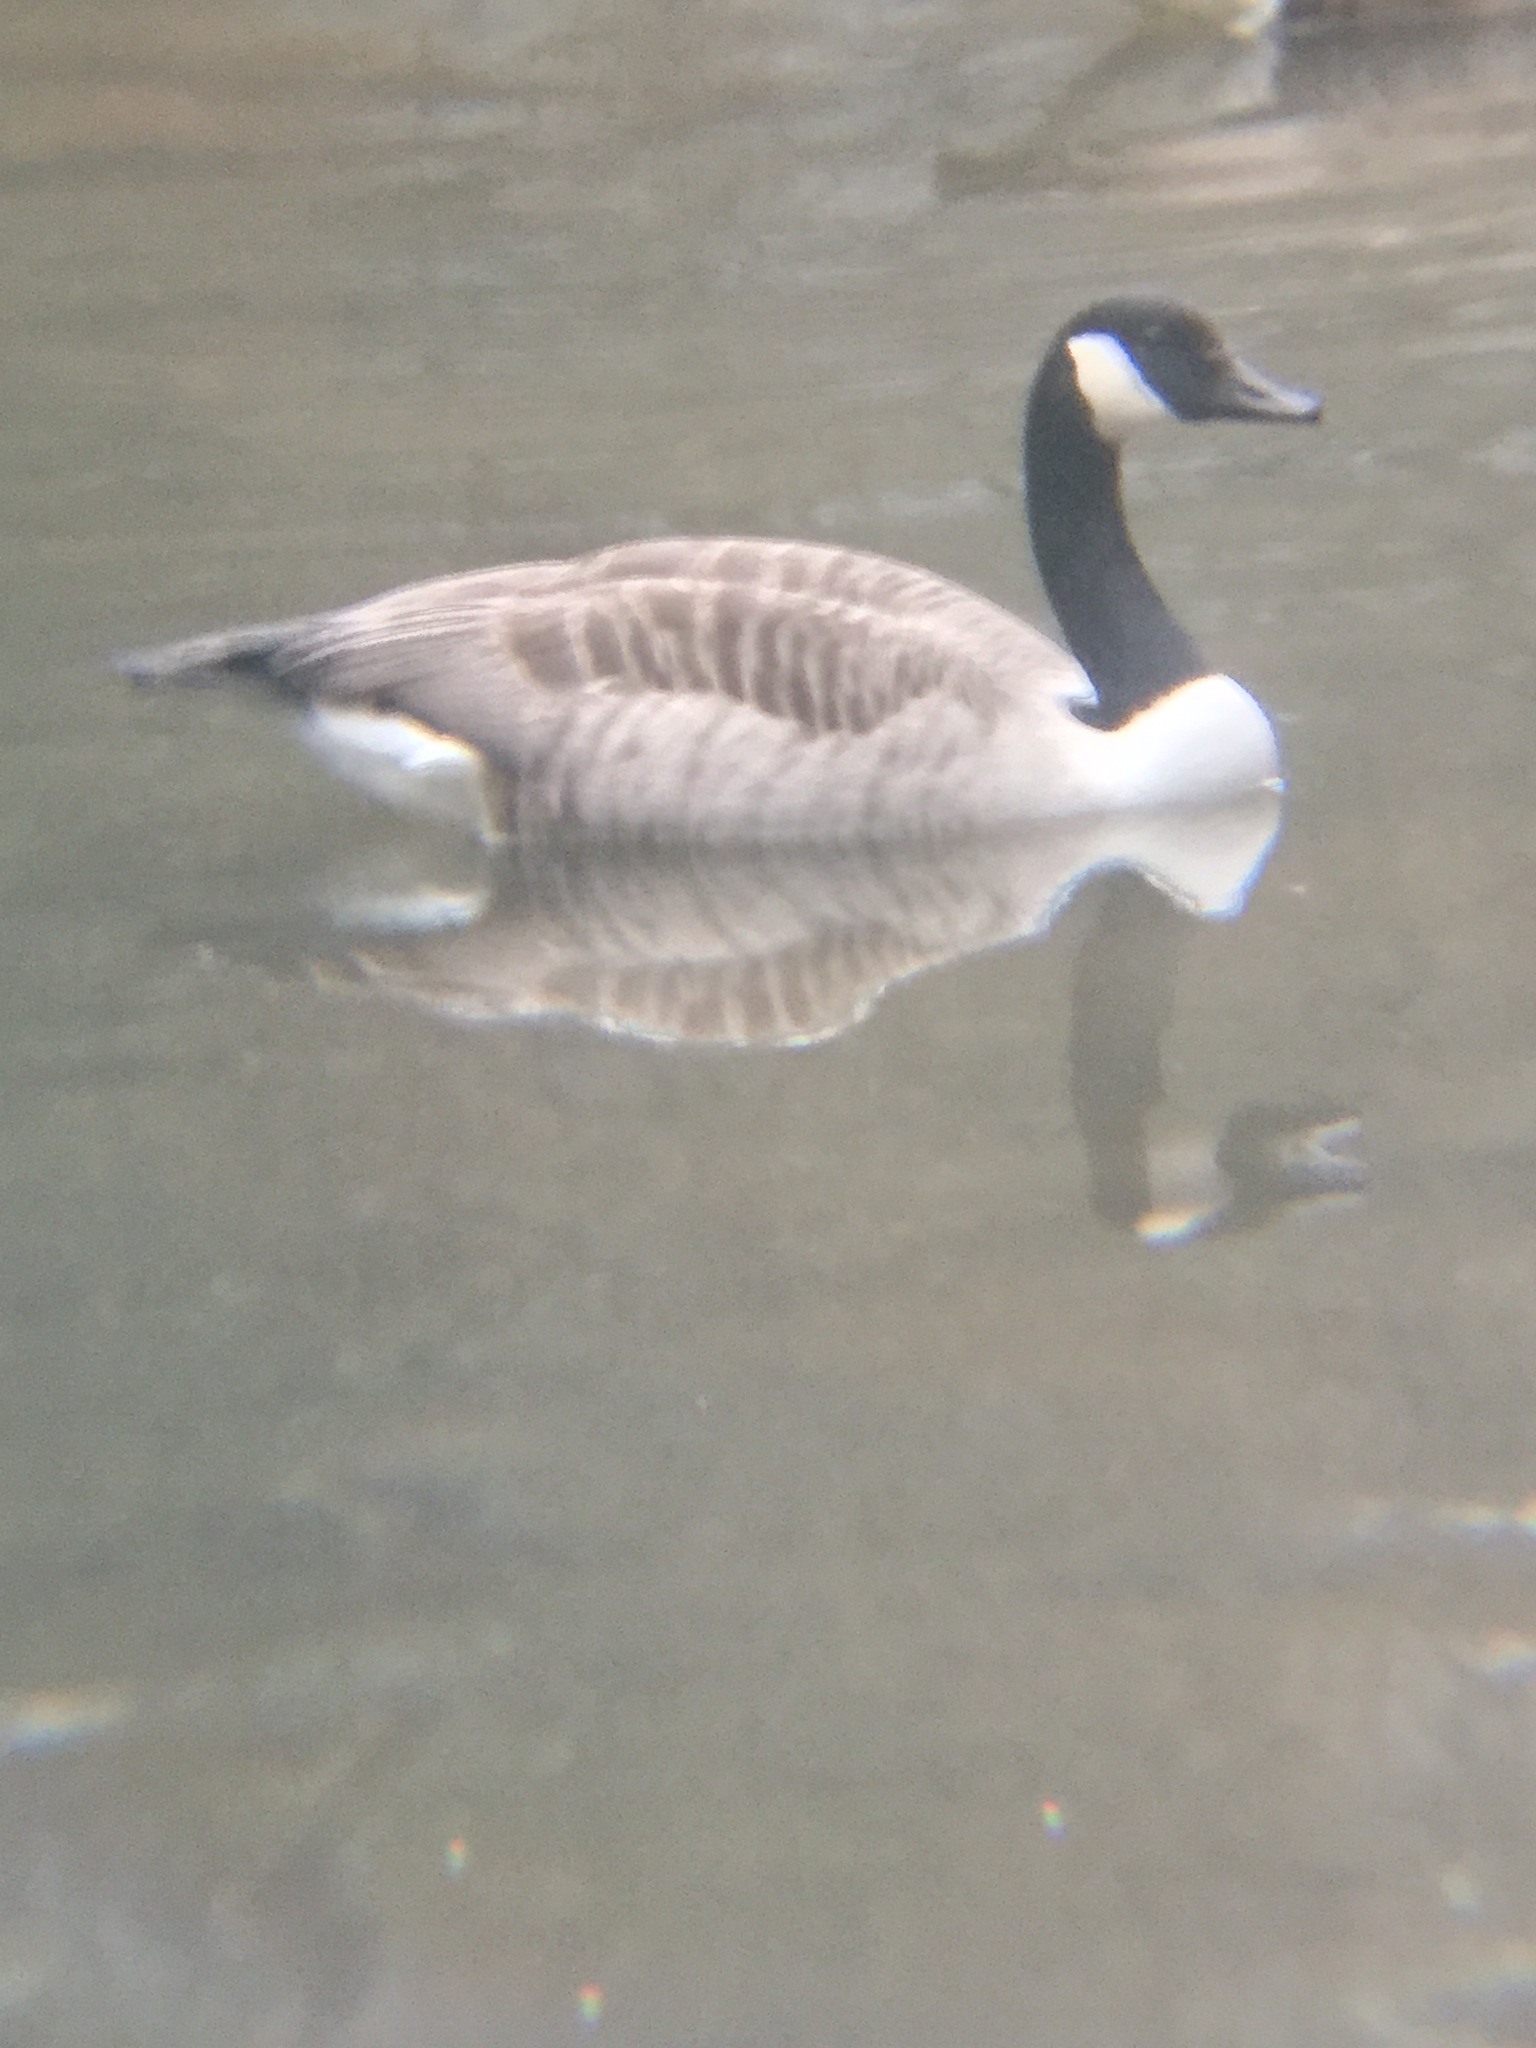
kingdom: Animalia
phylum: Chordata
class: Aves
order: Anseriformes
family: Anatidae
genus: Branta
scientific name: Branta canadensis
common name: Canada goose
